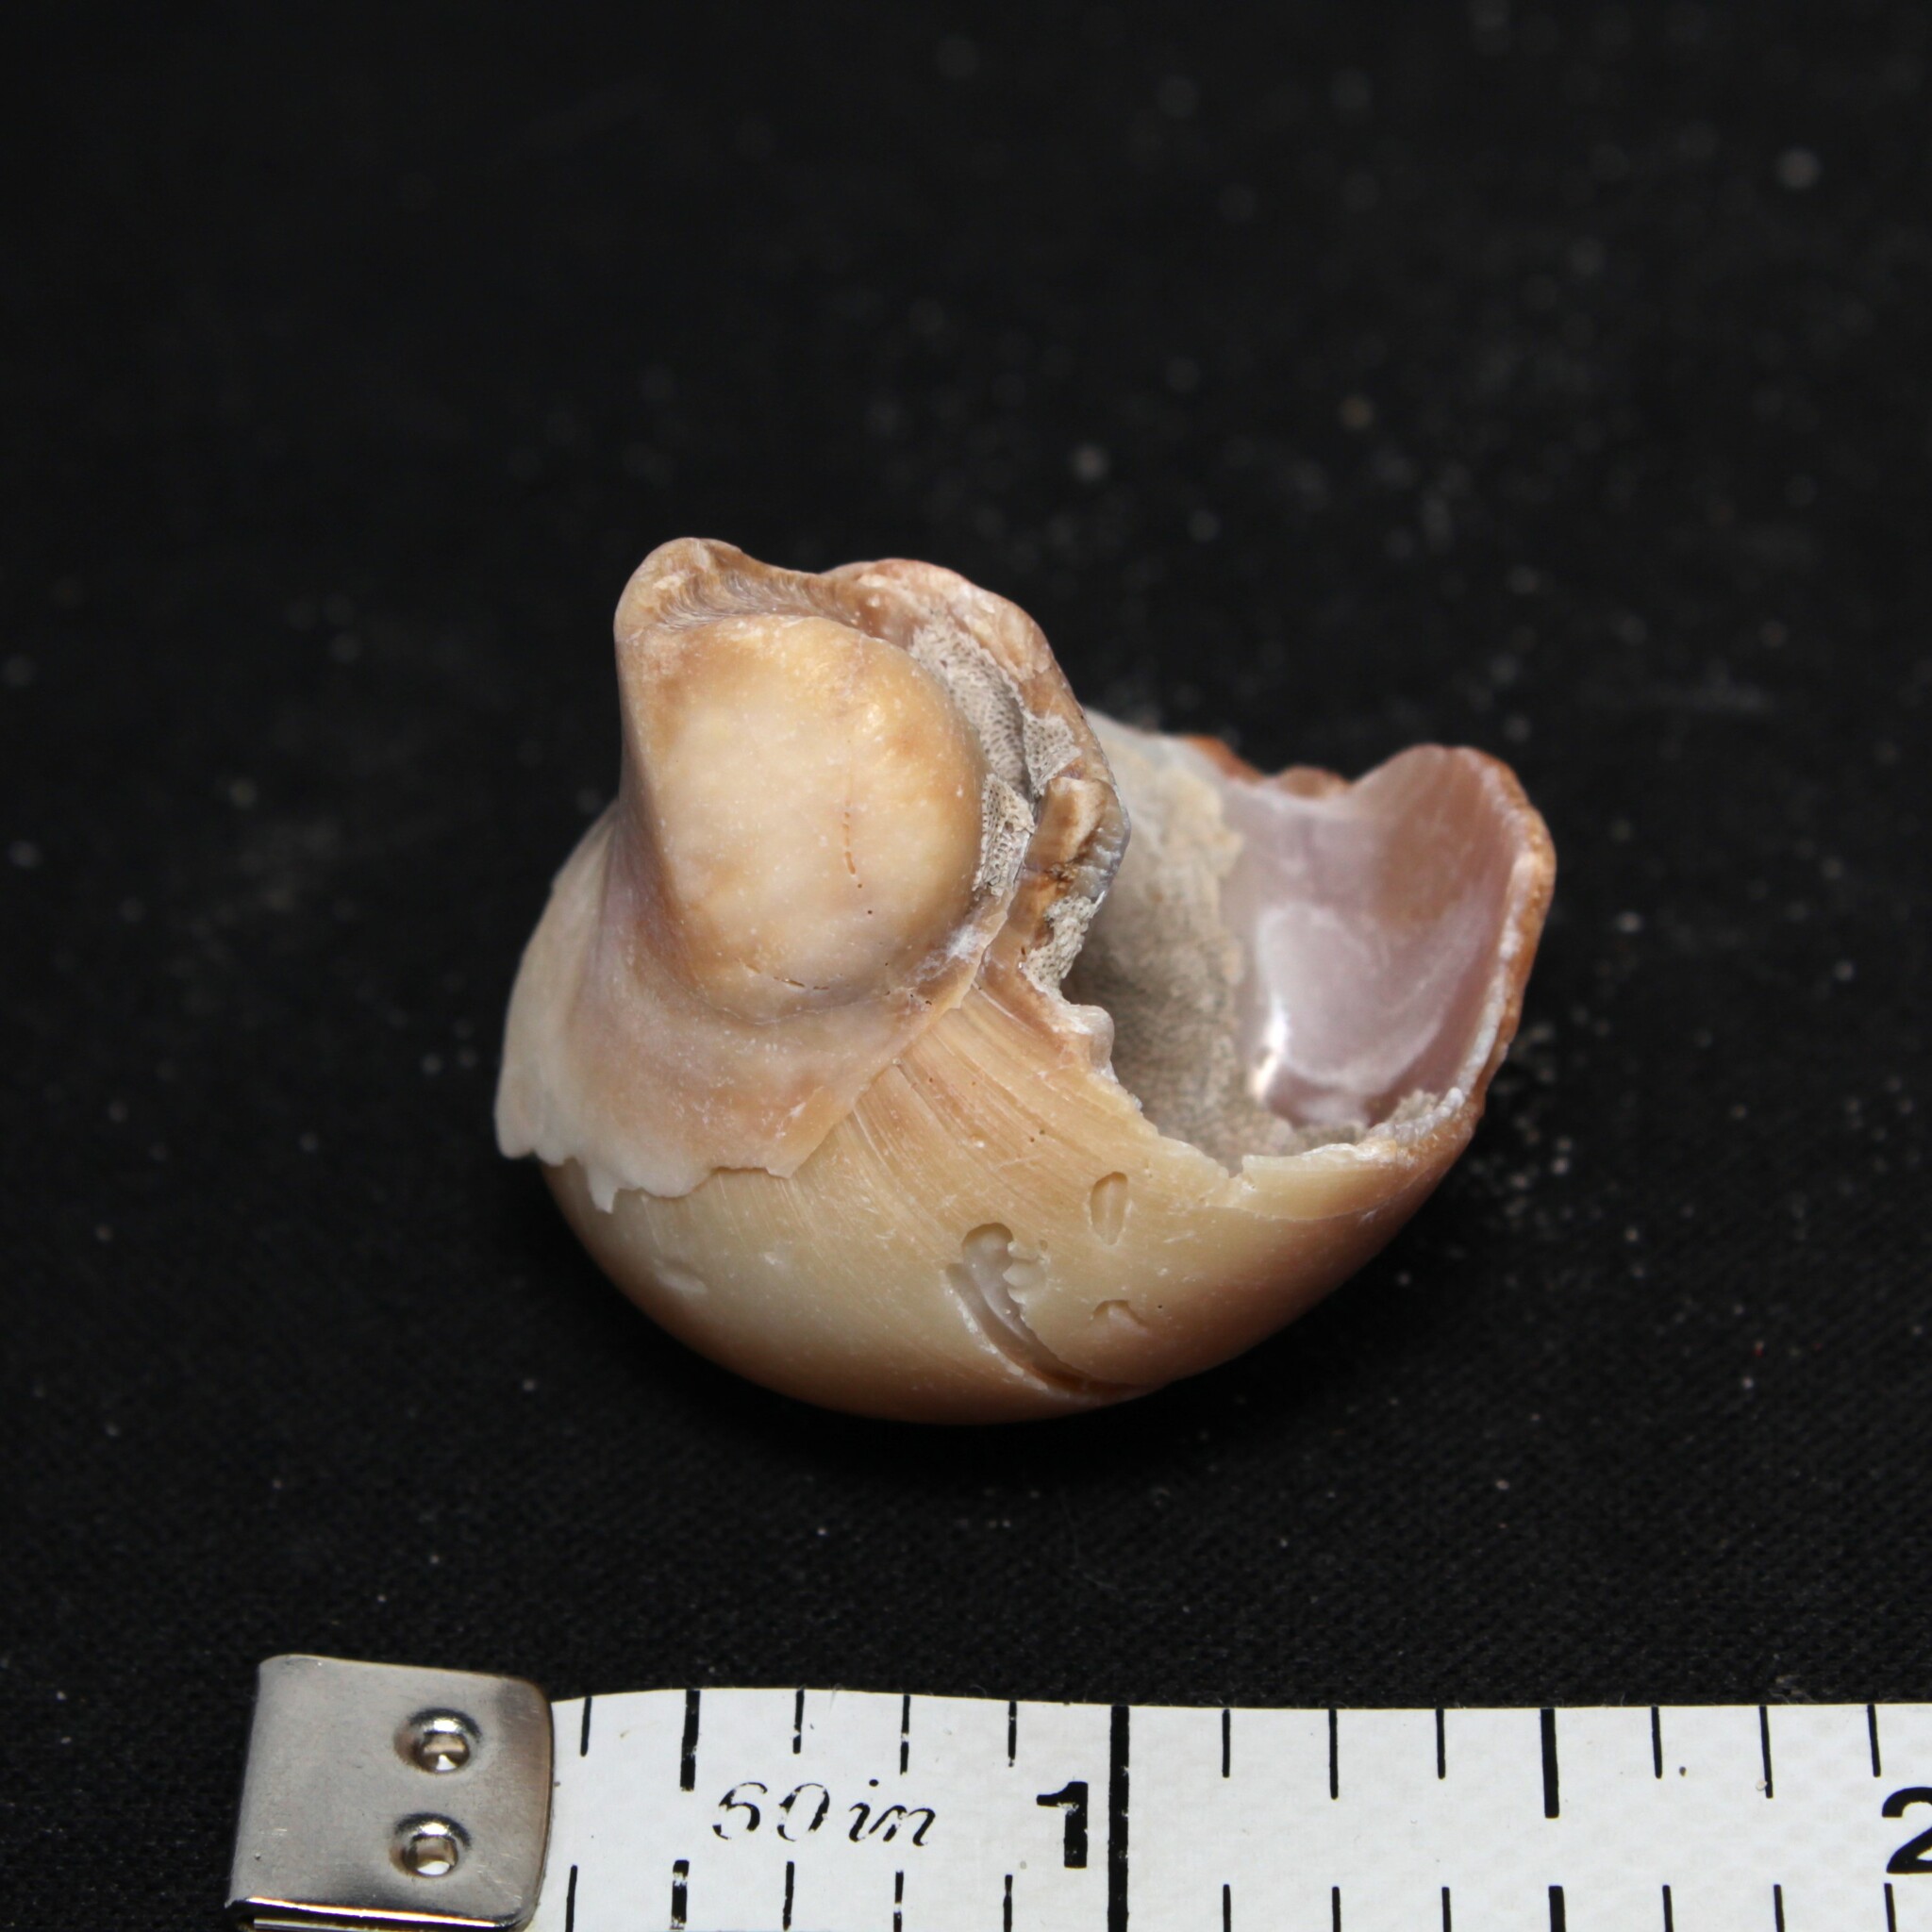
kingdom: Animalia
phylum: Mollusca
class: Gastropoda
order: Littorinimorpha
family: Naticidae
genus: Neverita
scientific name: Neverita duplicata
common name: Lobed moonsnail
